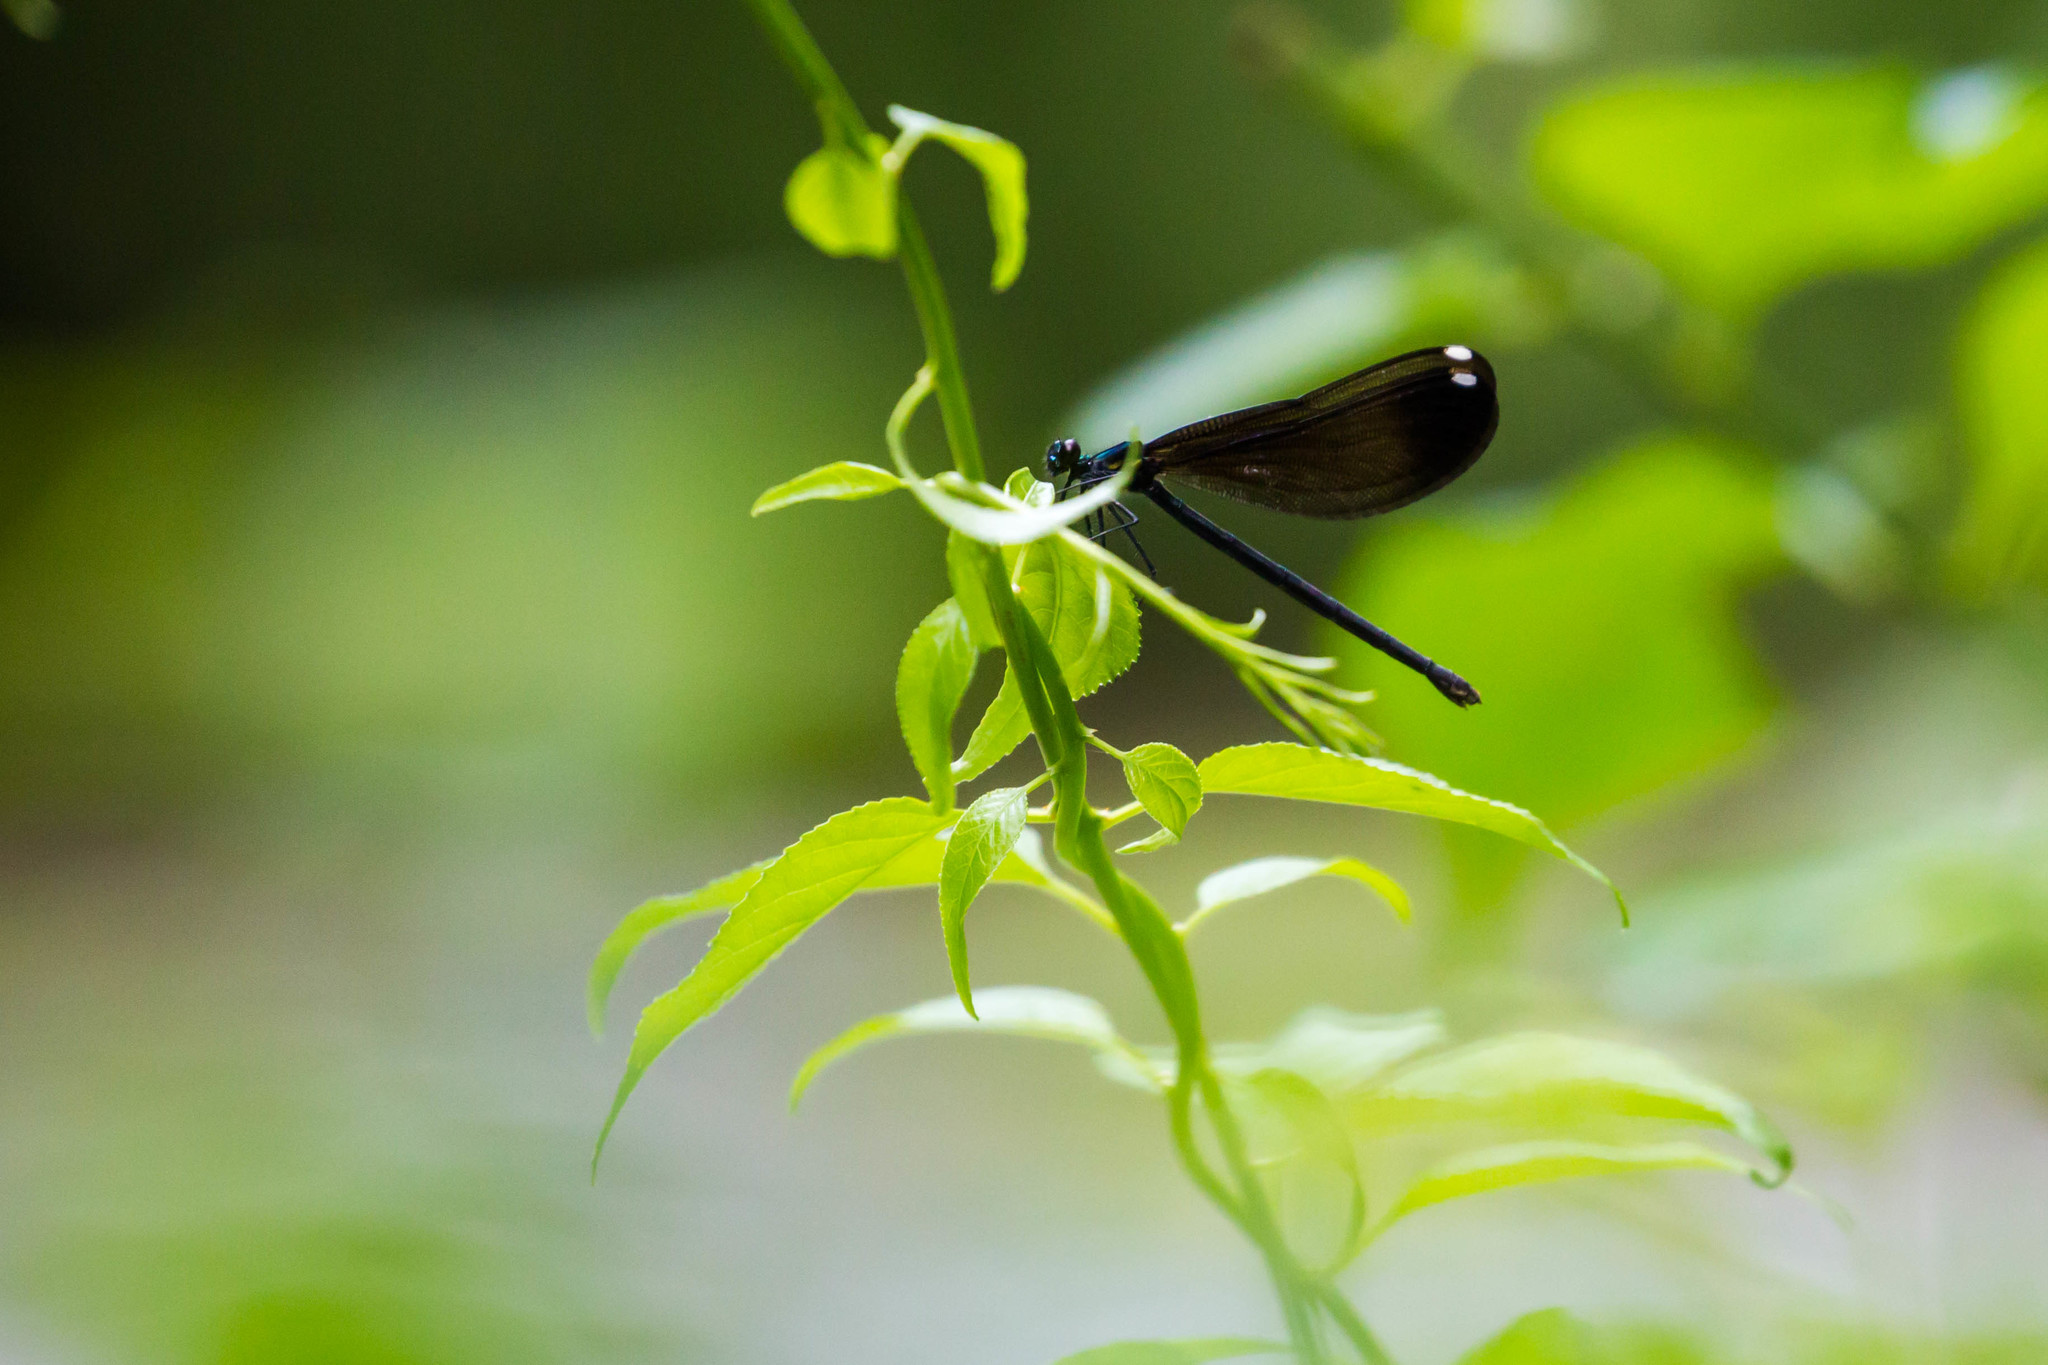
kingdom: Animalia
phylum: Arthropoda
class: Insecta
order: Odonata
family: Calopterygidae
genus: Calopteryx
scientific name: Calopteryx maculata
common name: Ebony jewelwing
